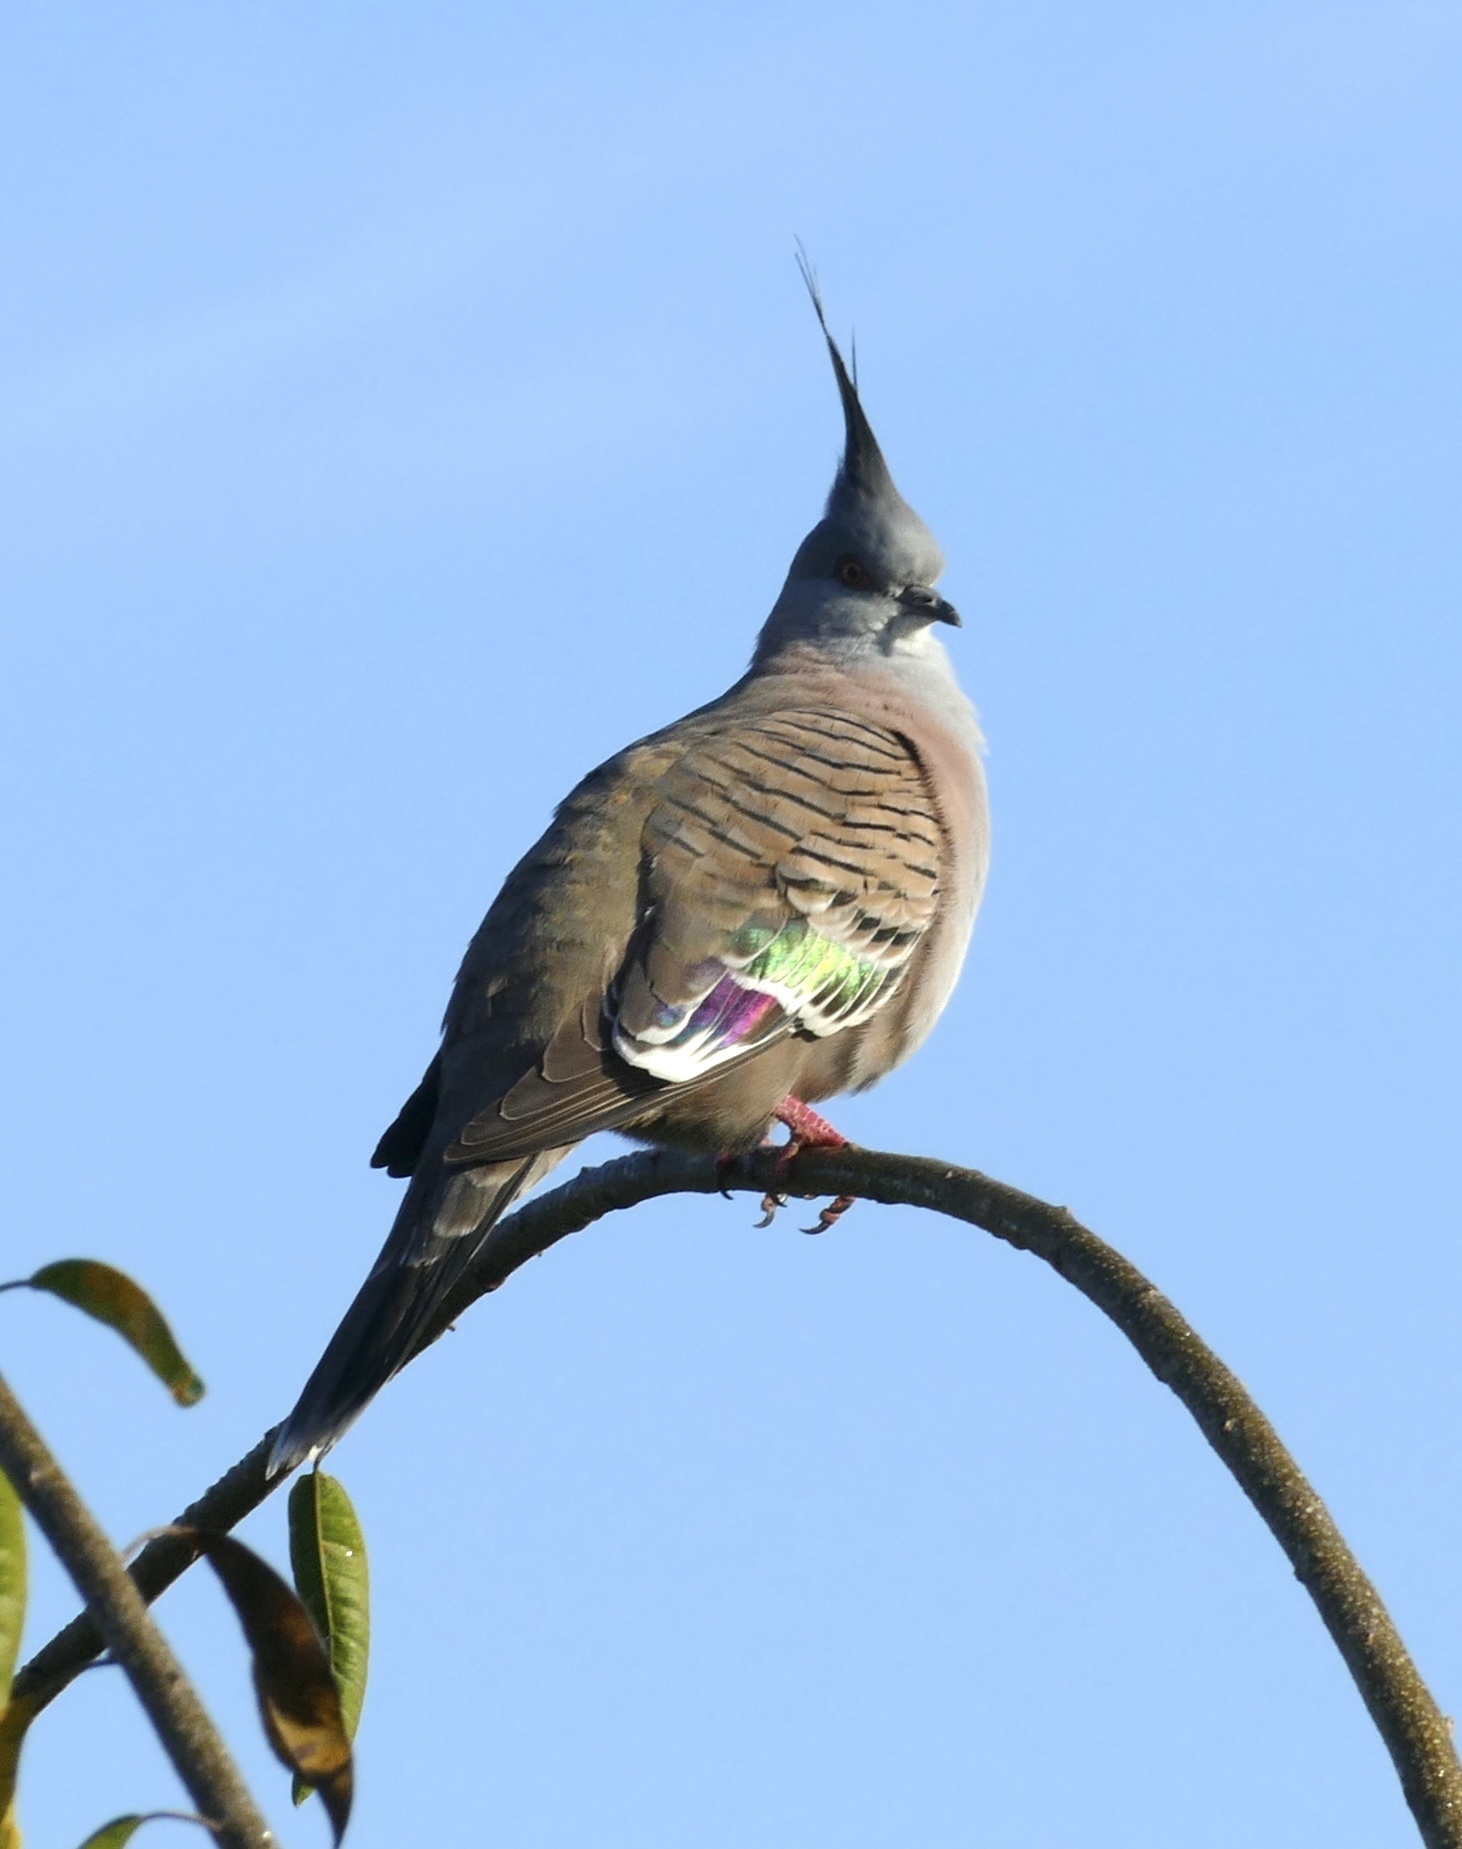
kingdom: Animalia
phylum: Chordata
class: Aves
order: Columbiformes
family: Columbidae
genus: Ocyphaps
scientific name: Ocyphaps lophotes
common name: Crested pigeon
